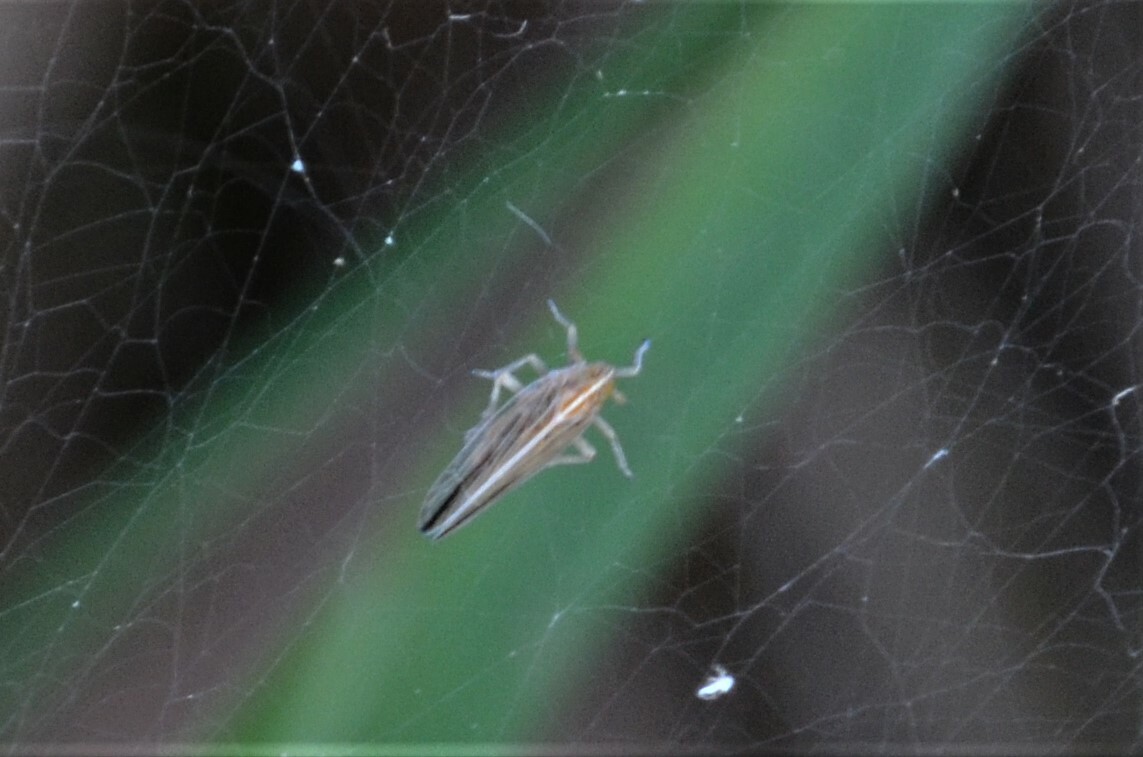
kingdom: Animalia
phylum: Arthropoda
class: Insecta
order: Hemiptera
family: Delphacidae
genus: Stenocranus
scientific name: Stenocranus major
